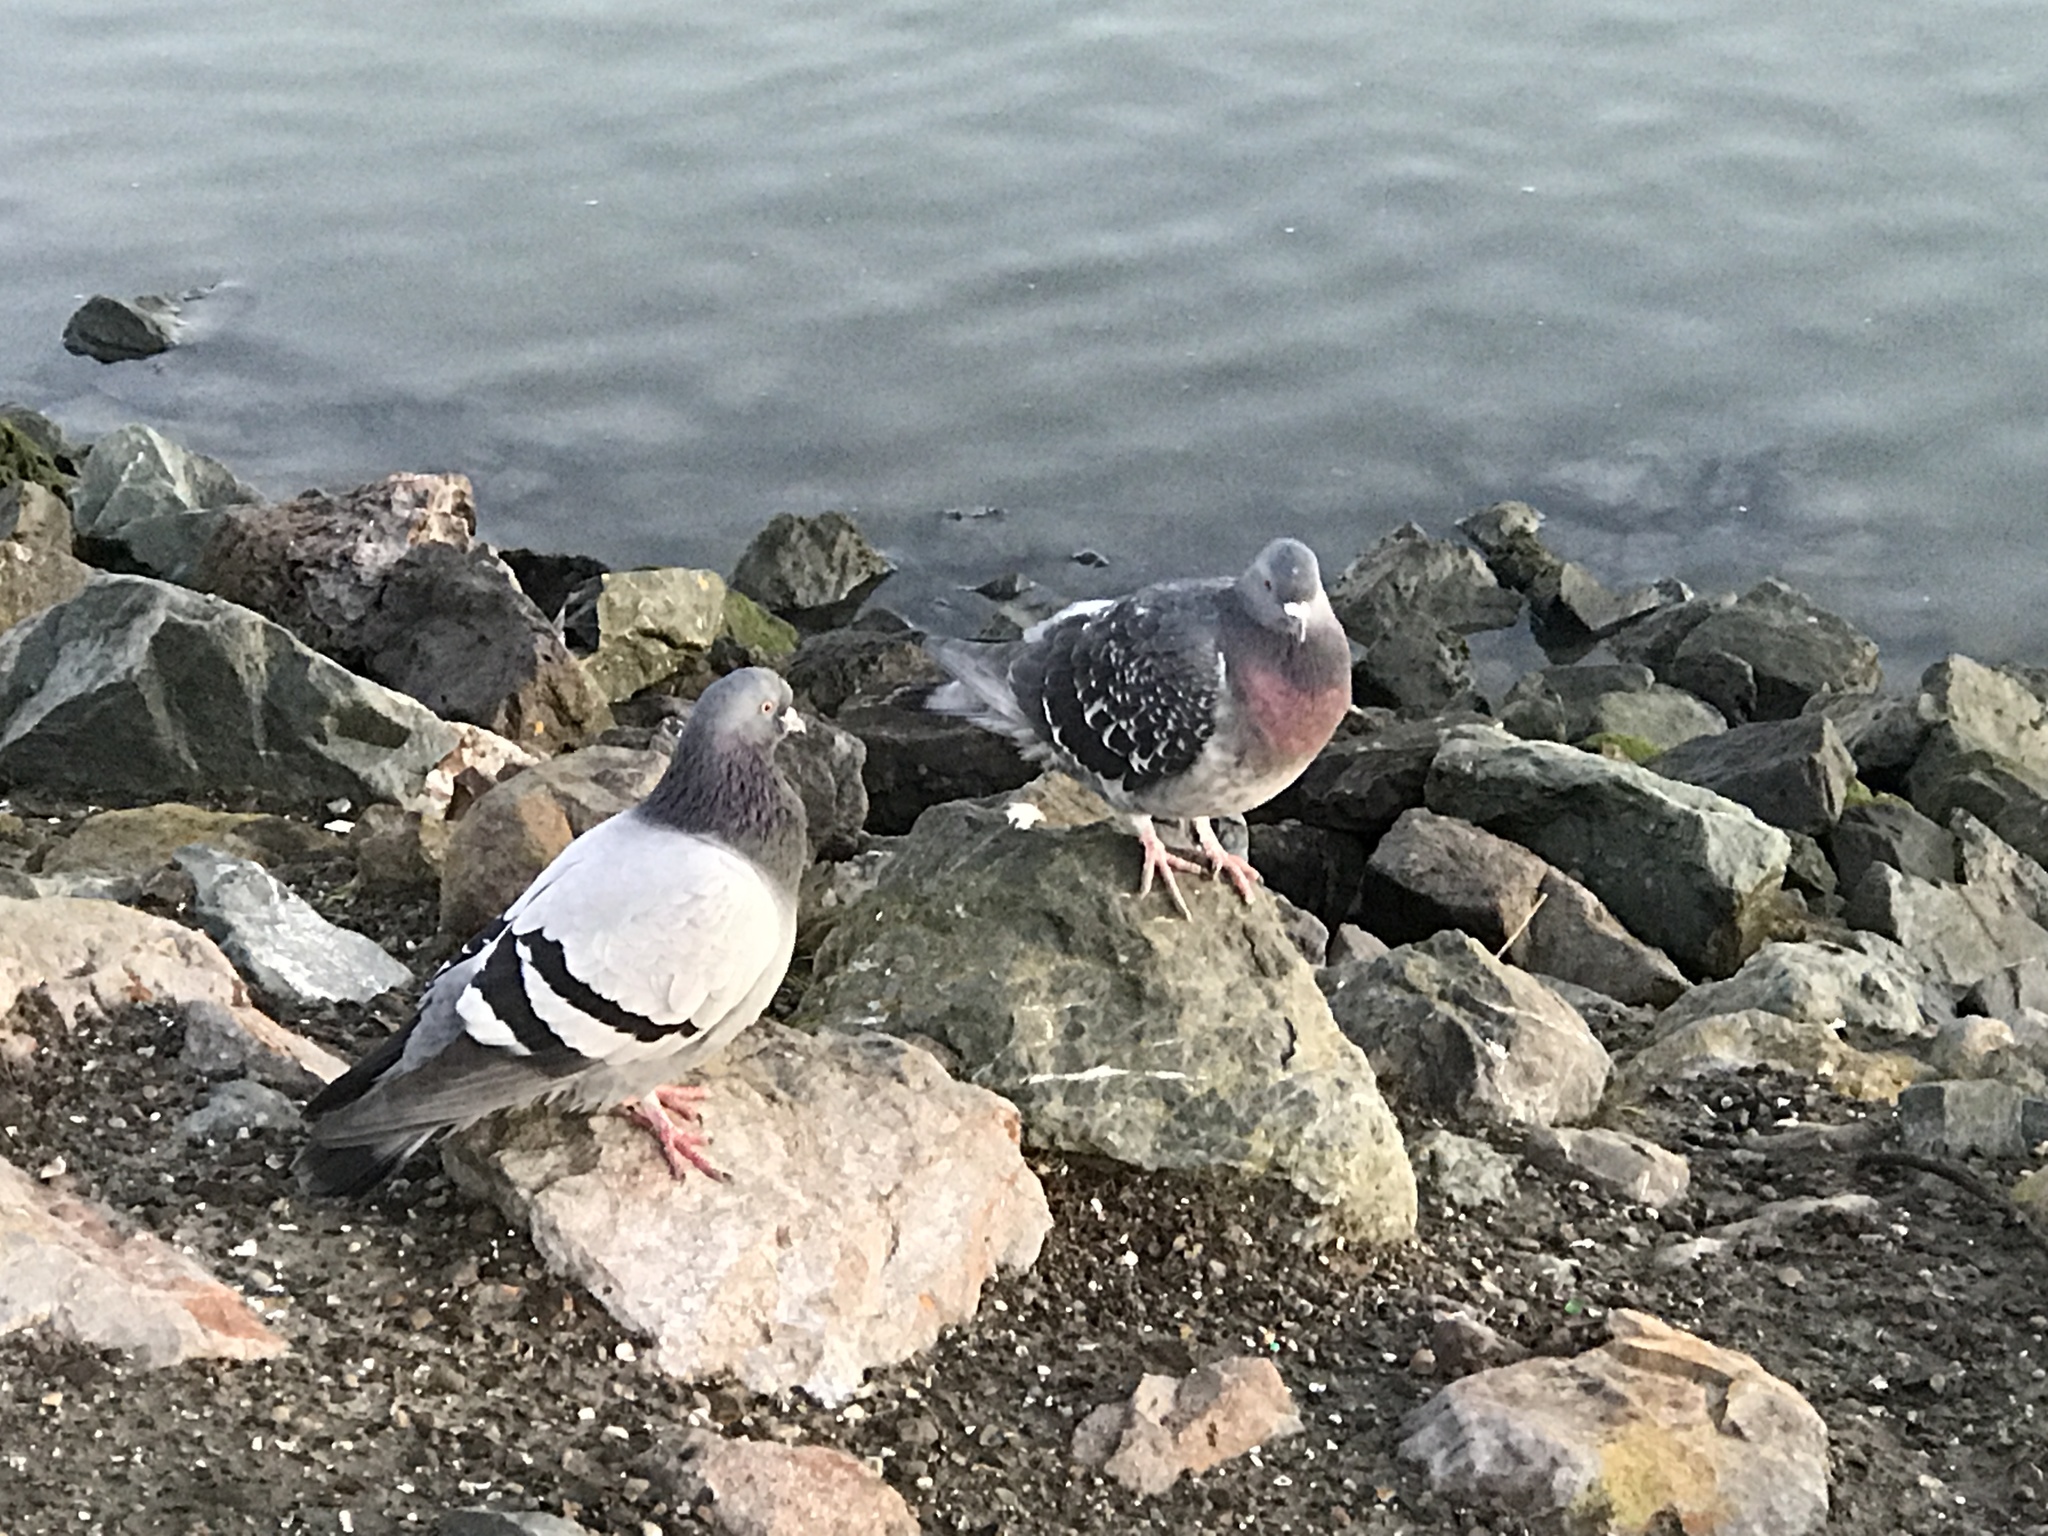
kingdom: Animalia
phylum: Chordata
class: Aves
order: Columbiformes
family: Columbidae
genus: Columba
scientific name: Columba livia
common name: Rock pigeon
